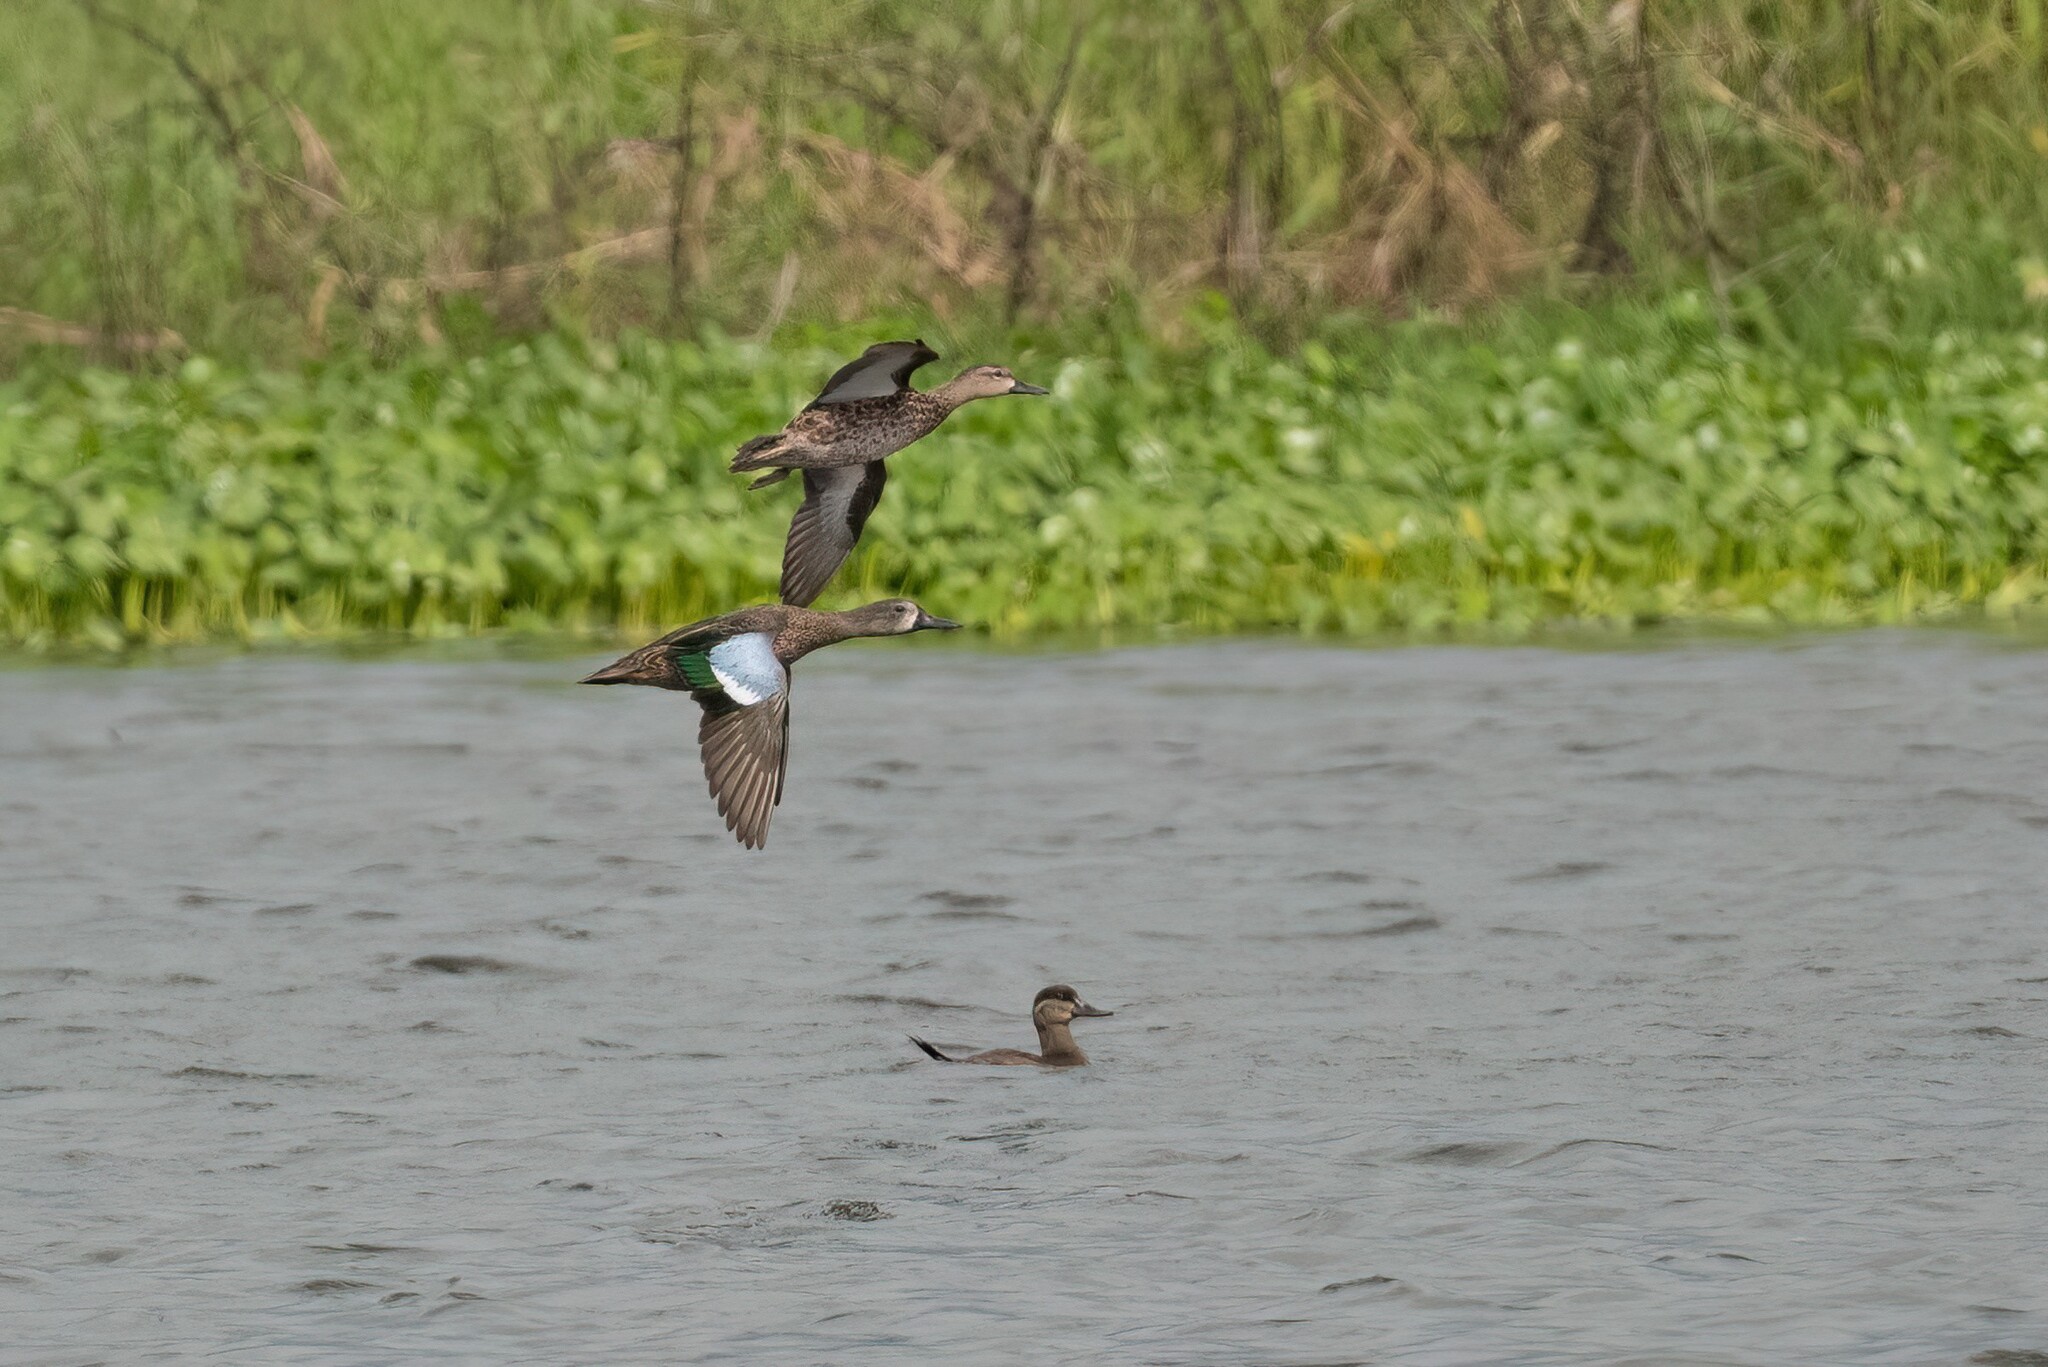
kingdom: Animalia
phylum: Chordata
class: Aves
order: Anseriformes
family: Anatidae
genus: Spatula
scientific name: Spatula discors
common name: Blue-winged teal
